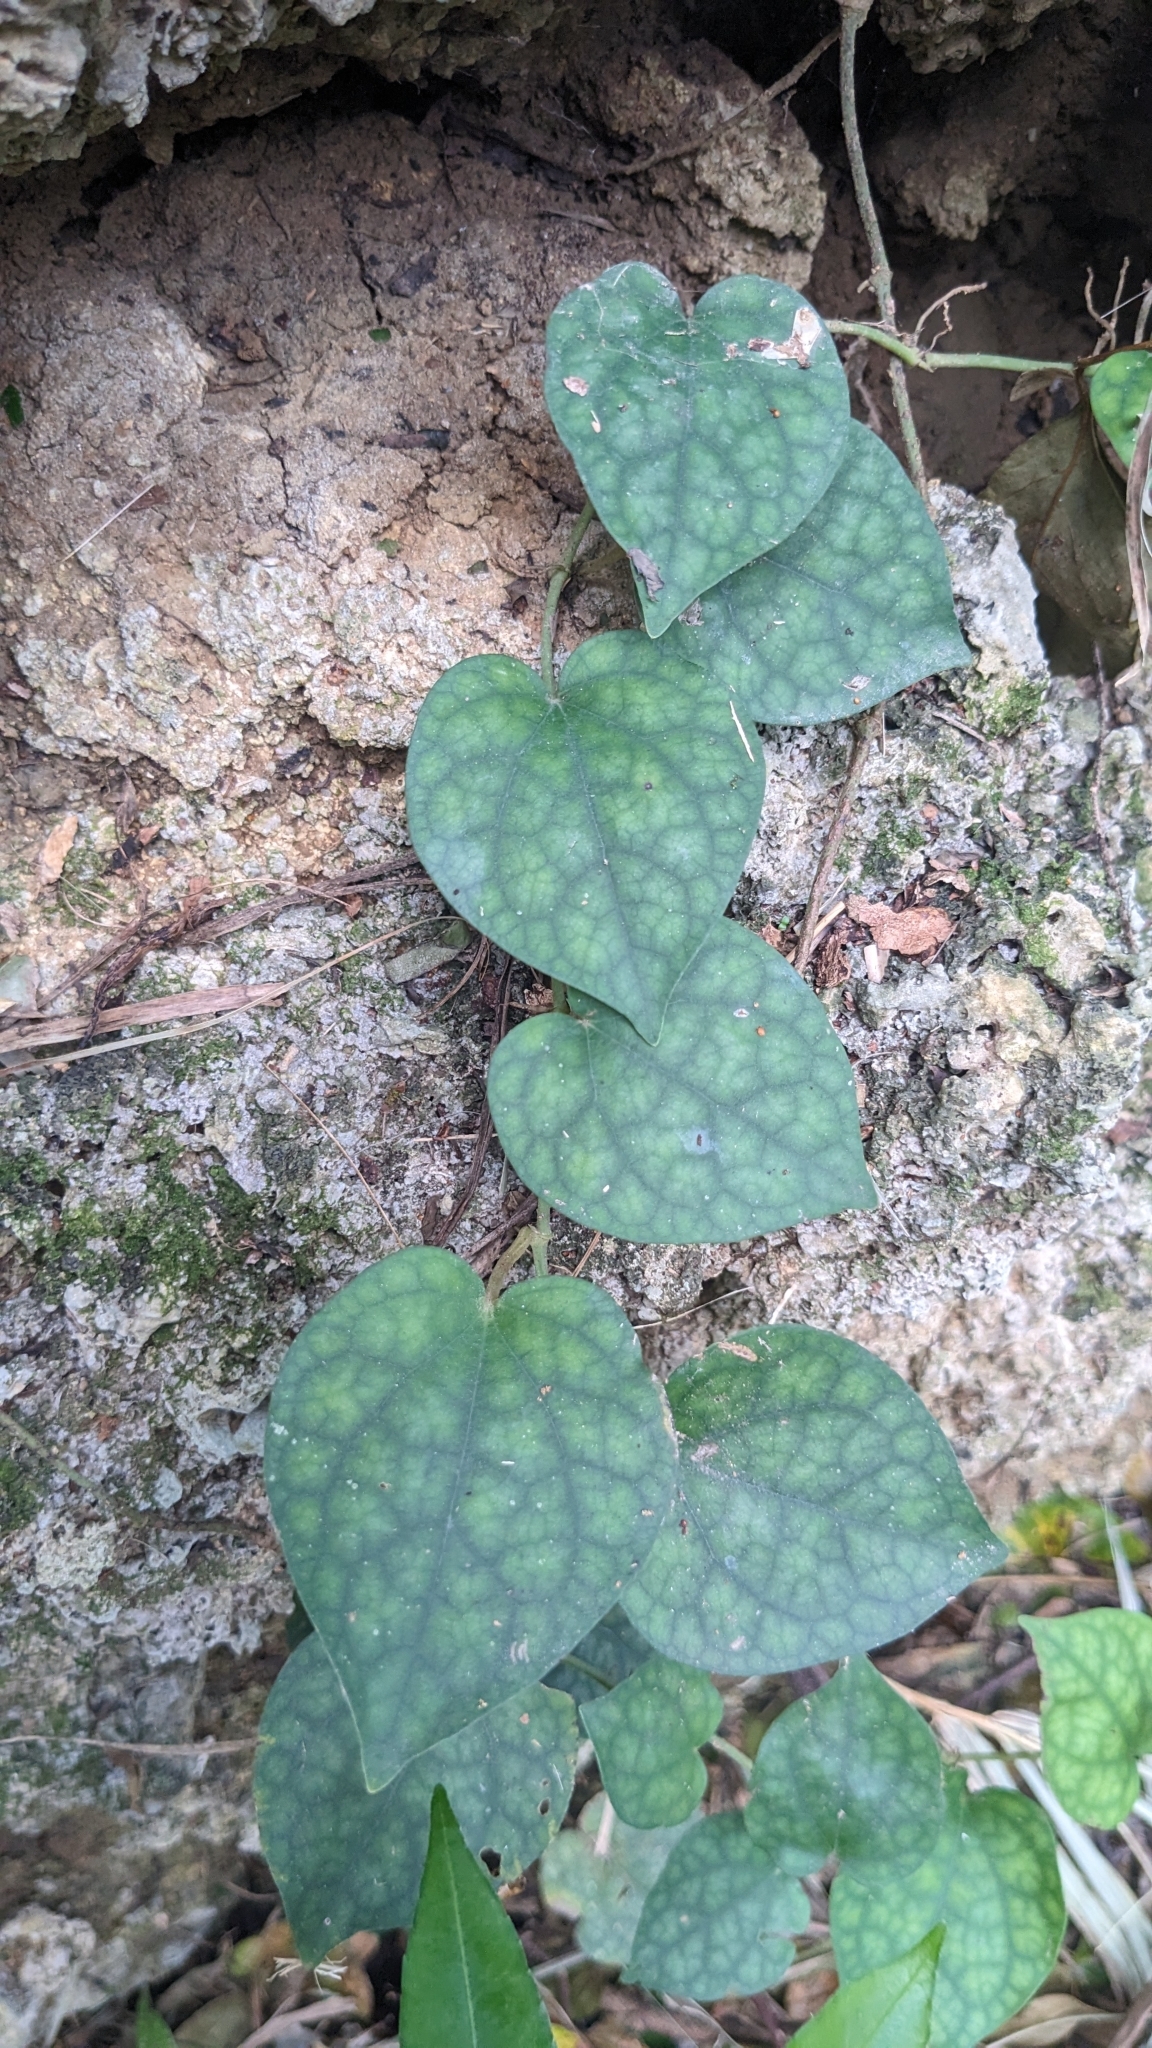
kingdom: Plantae
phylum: Tracheophyta
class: Magnoliopsida
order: Piperales
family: Piperaceae
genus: Piper
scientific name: Piper kadsura
